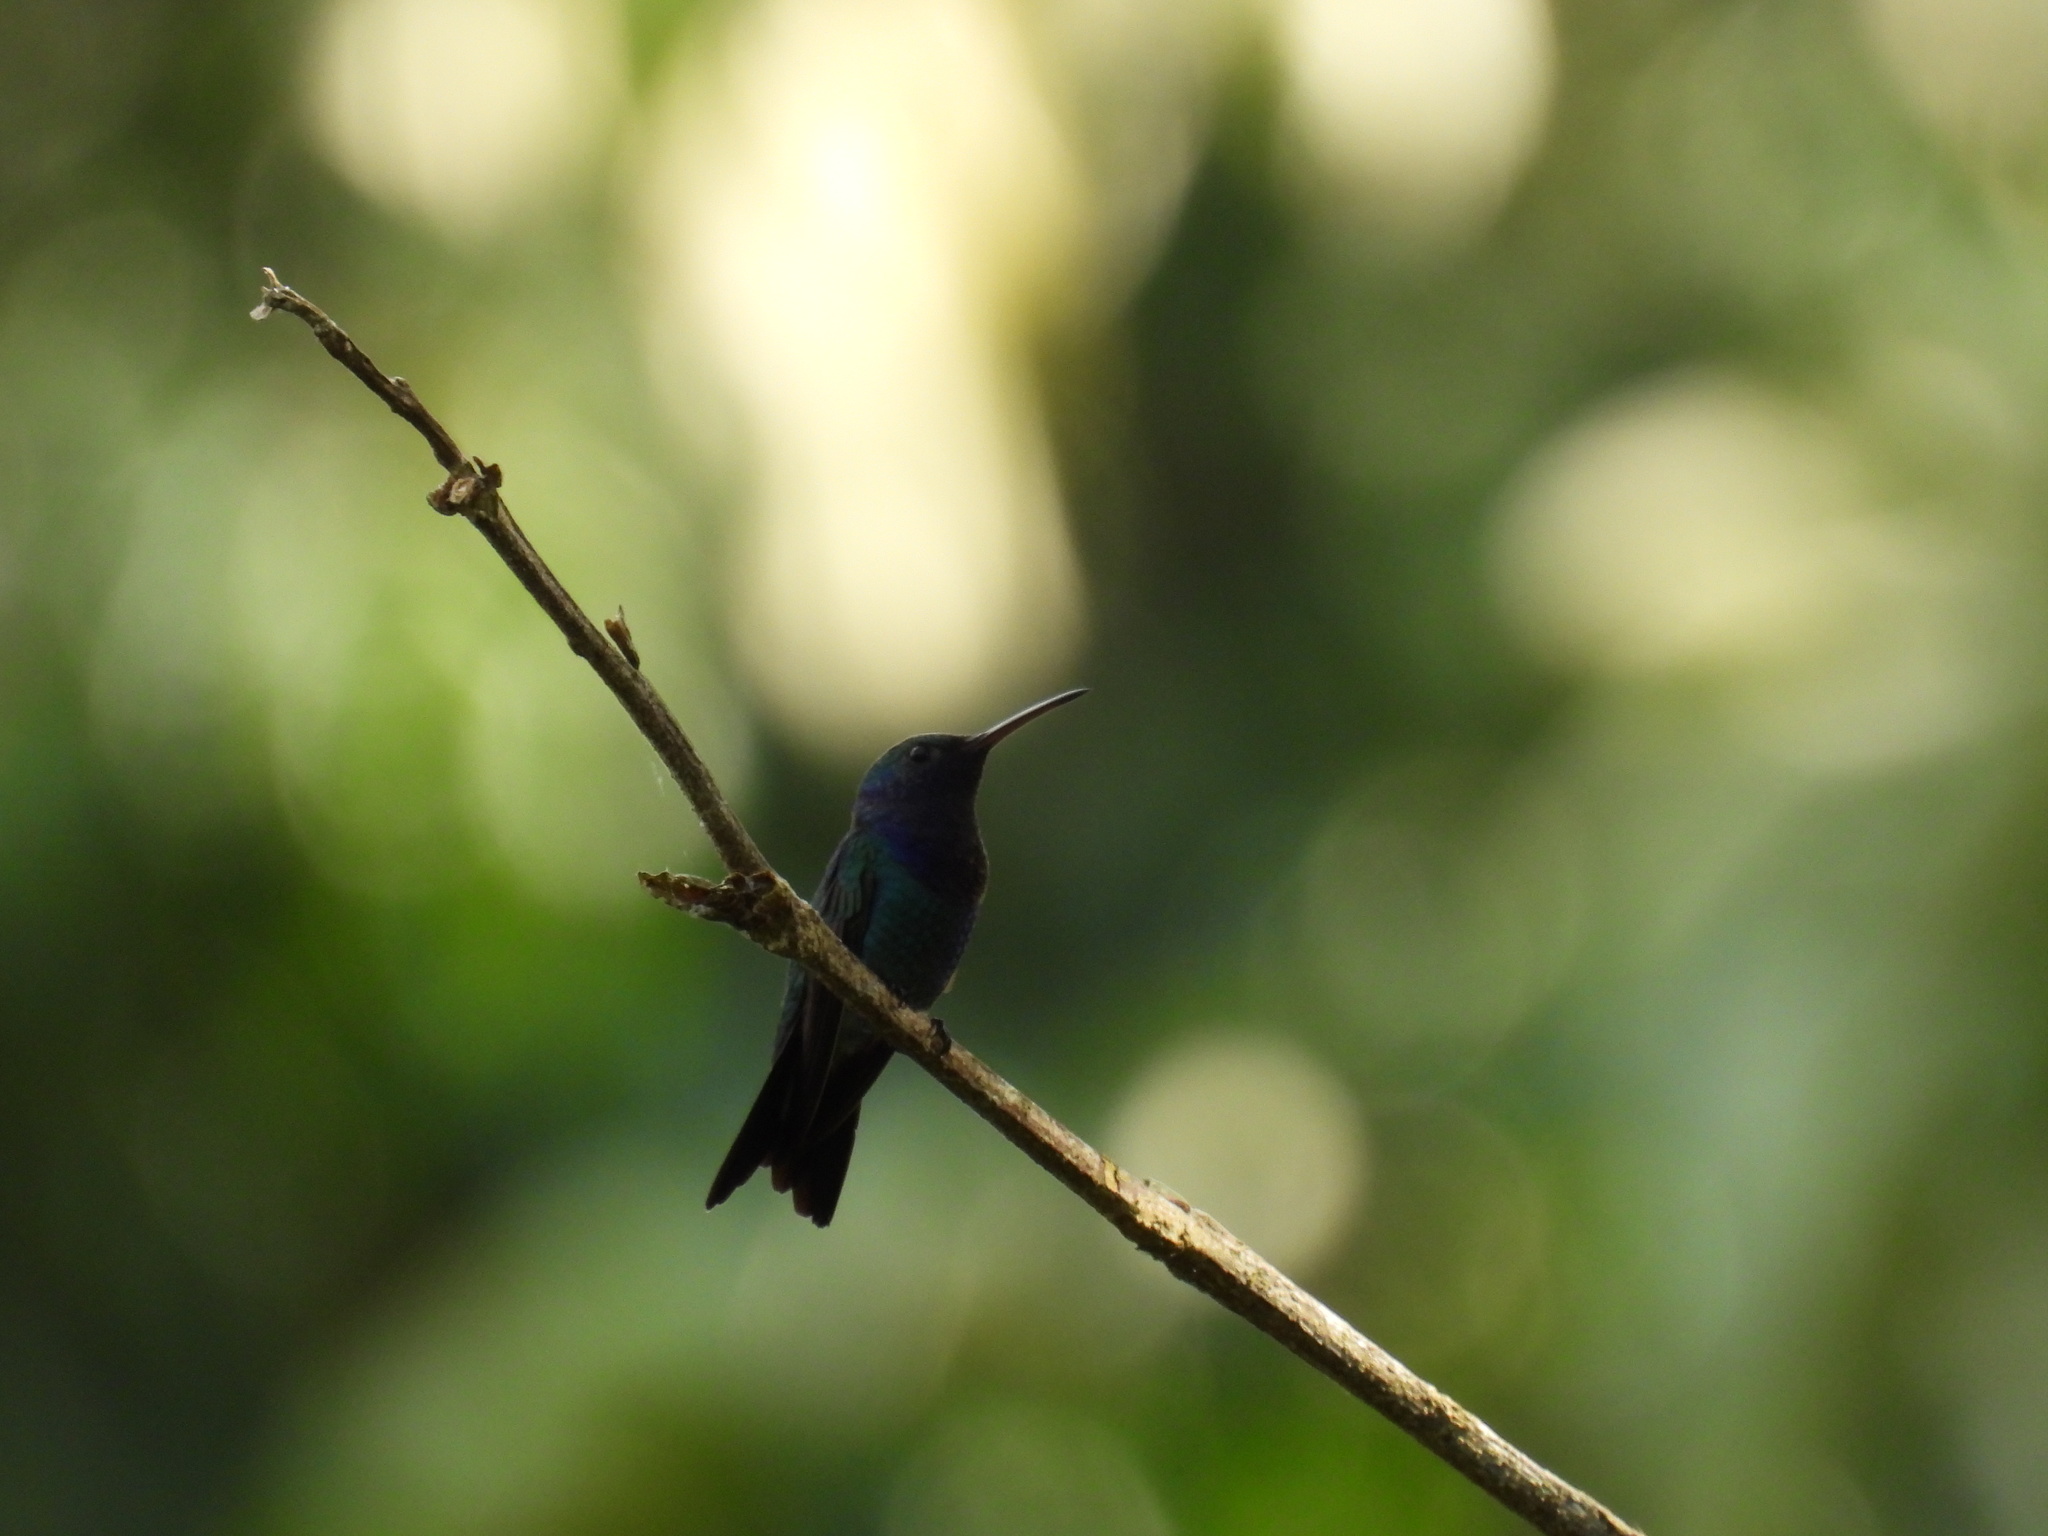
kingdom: Animalia
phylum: Chordata
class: Aves
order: Apodiformes
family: Trochilidae
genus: Chrysuronia
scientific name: Chrysuronia coeruleogularis
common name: Sapphire-throated hummingbird
